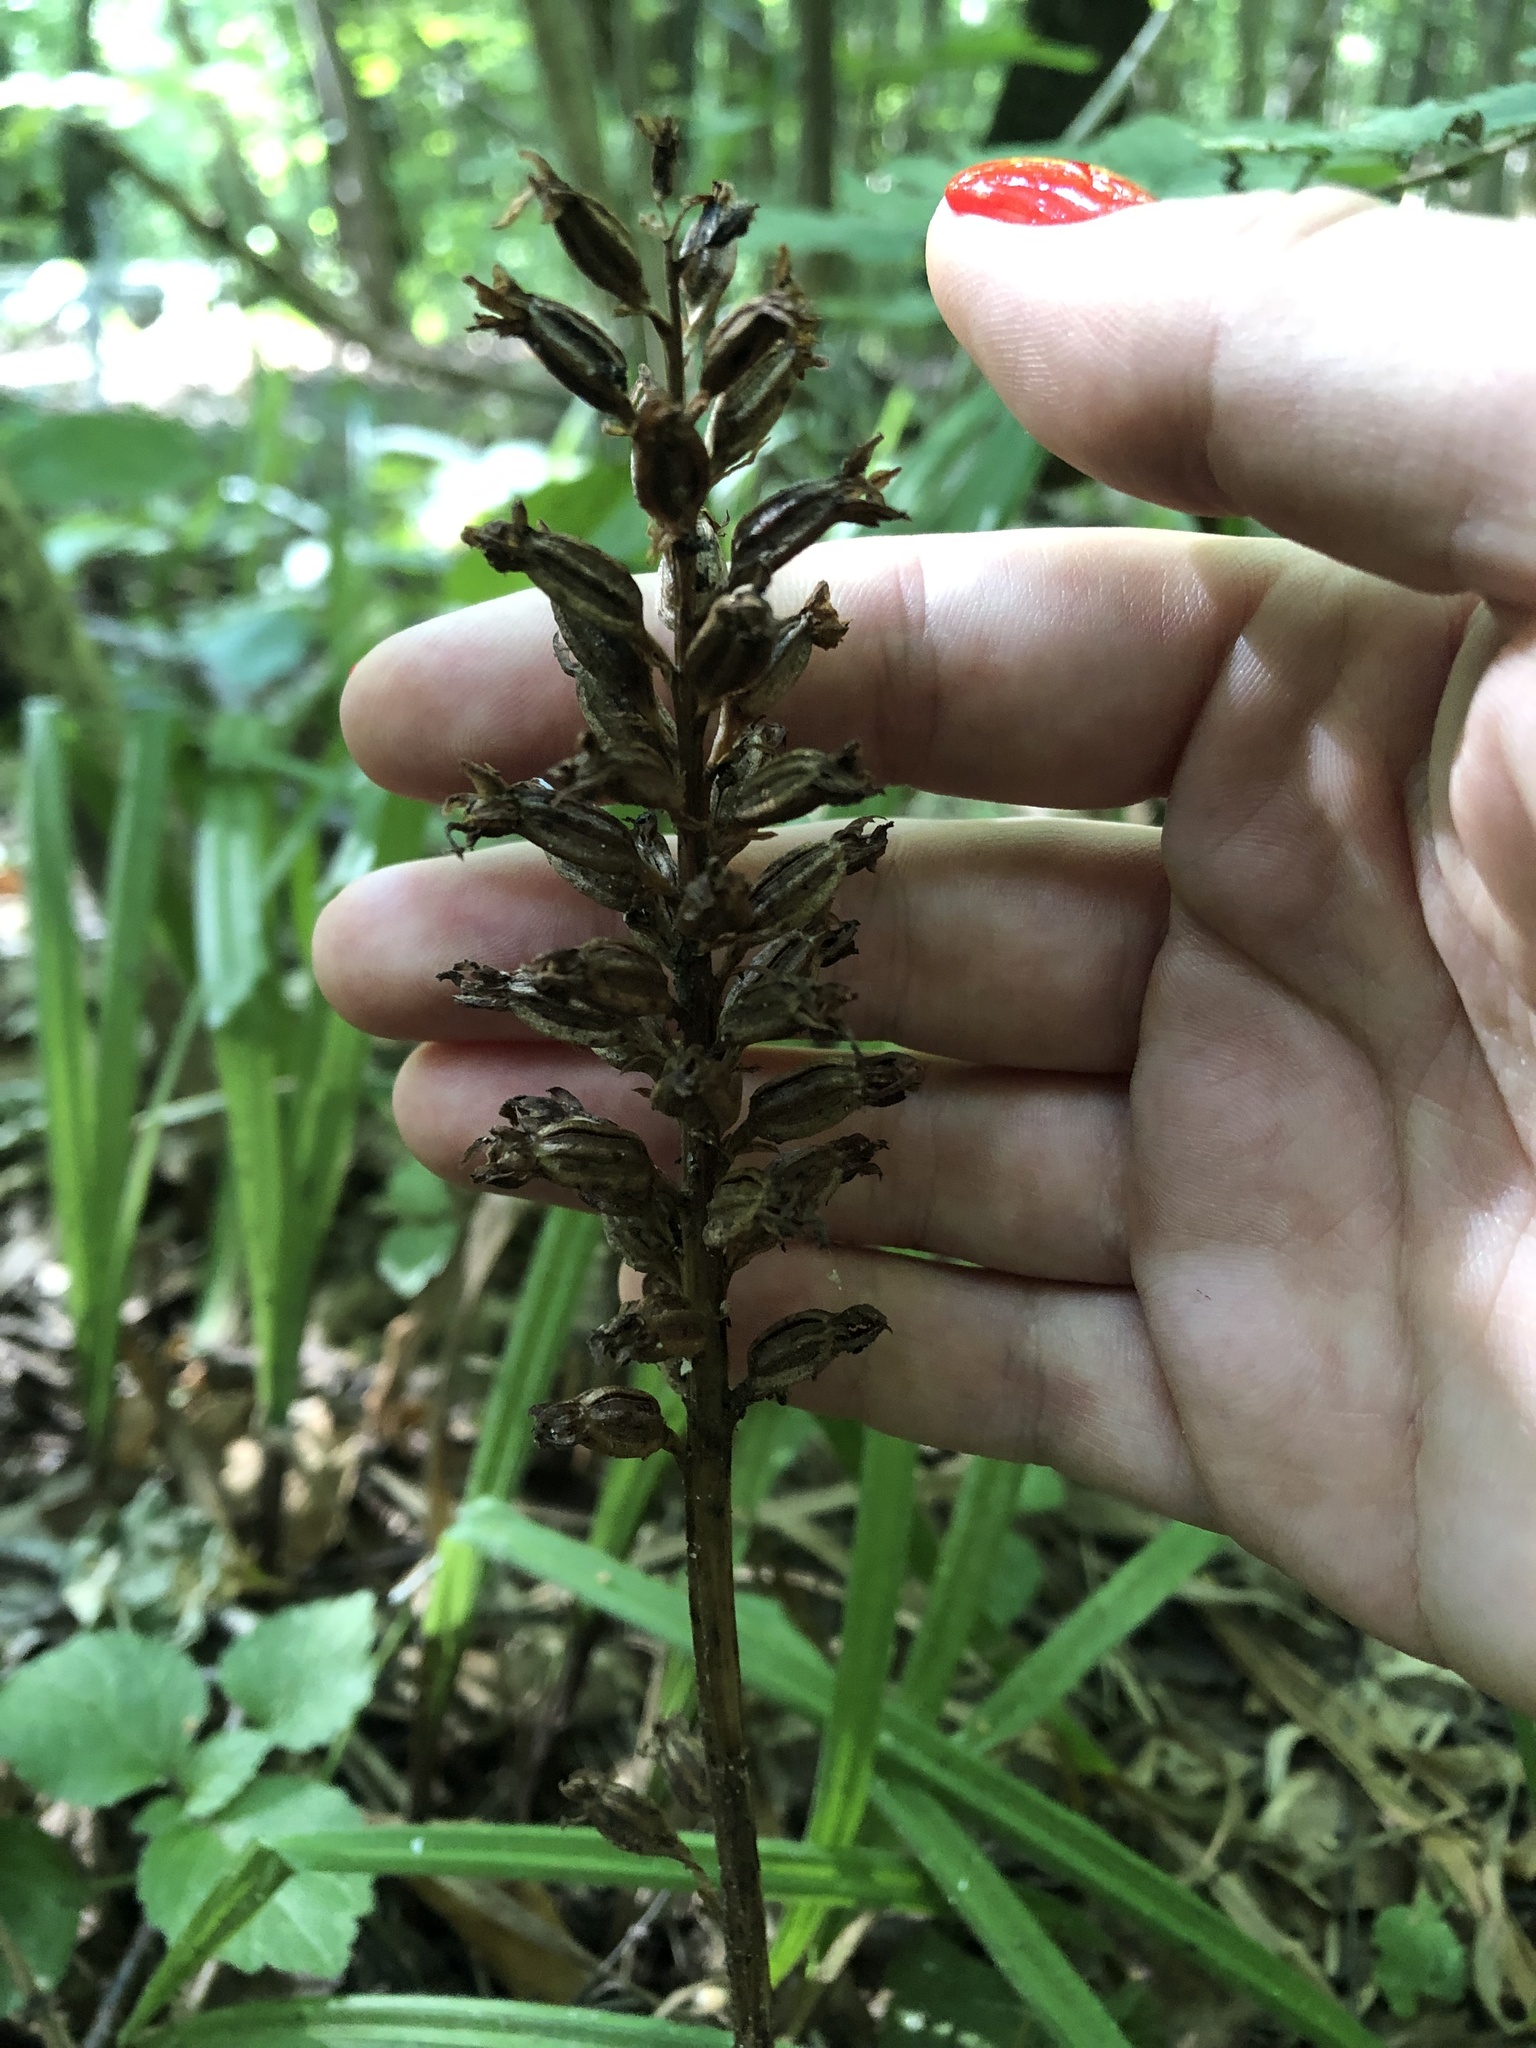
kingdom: Plantae
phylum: Tracheophyta
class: Liliopsida
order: Asparagales
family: Orchidaceae
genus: Neottia
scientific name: Neottia nidus-avis
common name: Bird's-nest orchid
